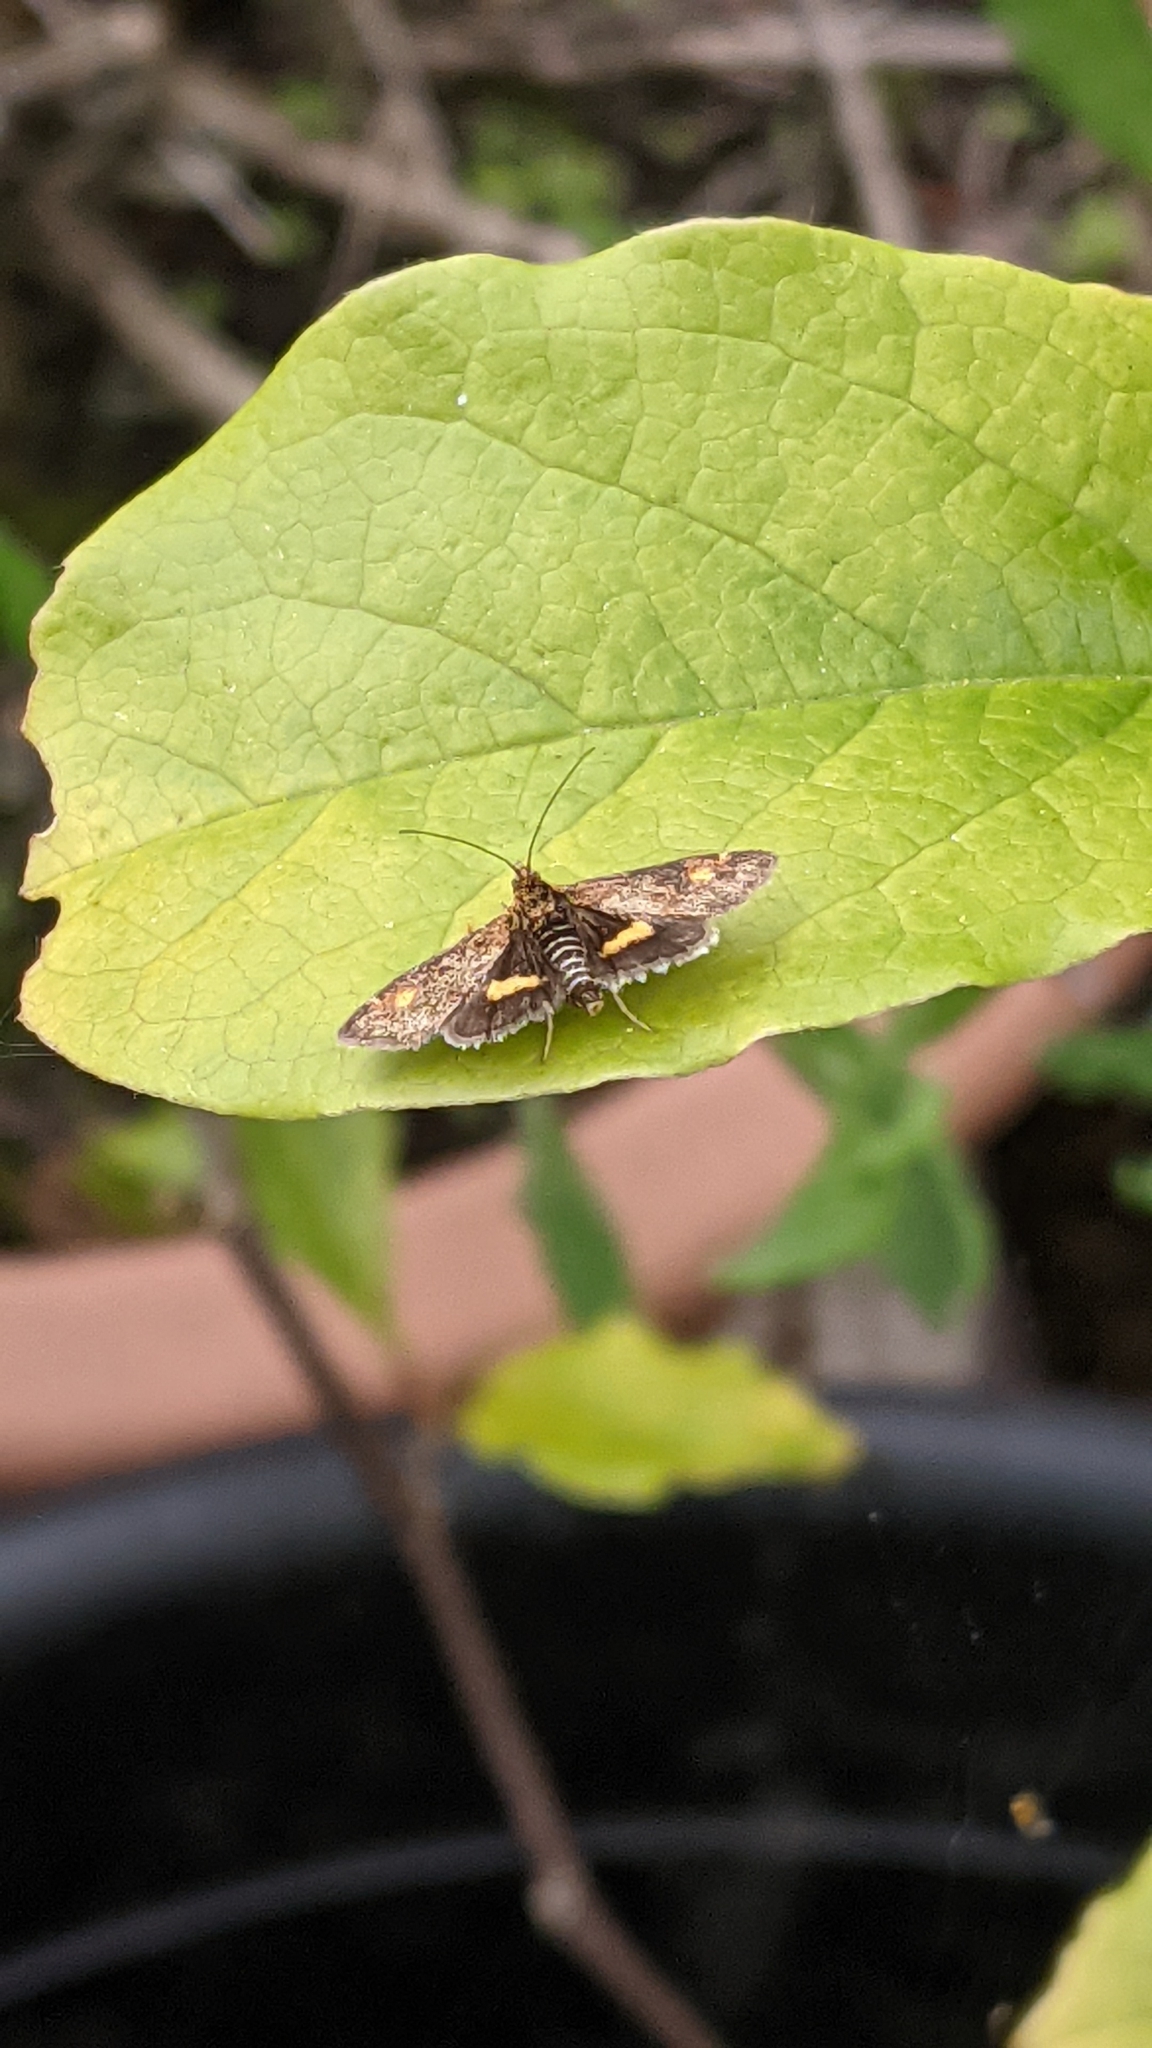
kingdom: Animalia
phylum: Arthropoda
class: Insecta
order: Lepidoptera
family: Crambidae
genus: Pyrausta
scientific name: Pyrausta aurata
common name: Small purple & gold
